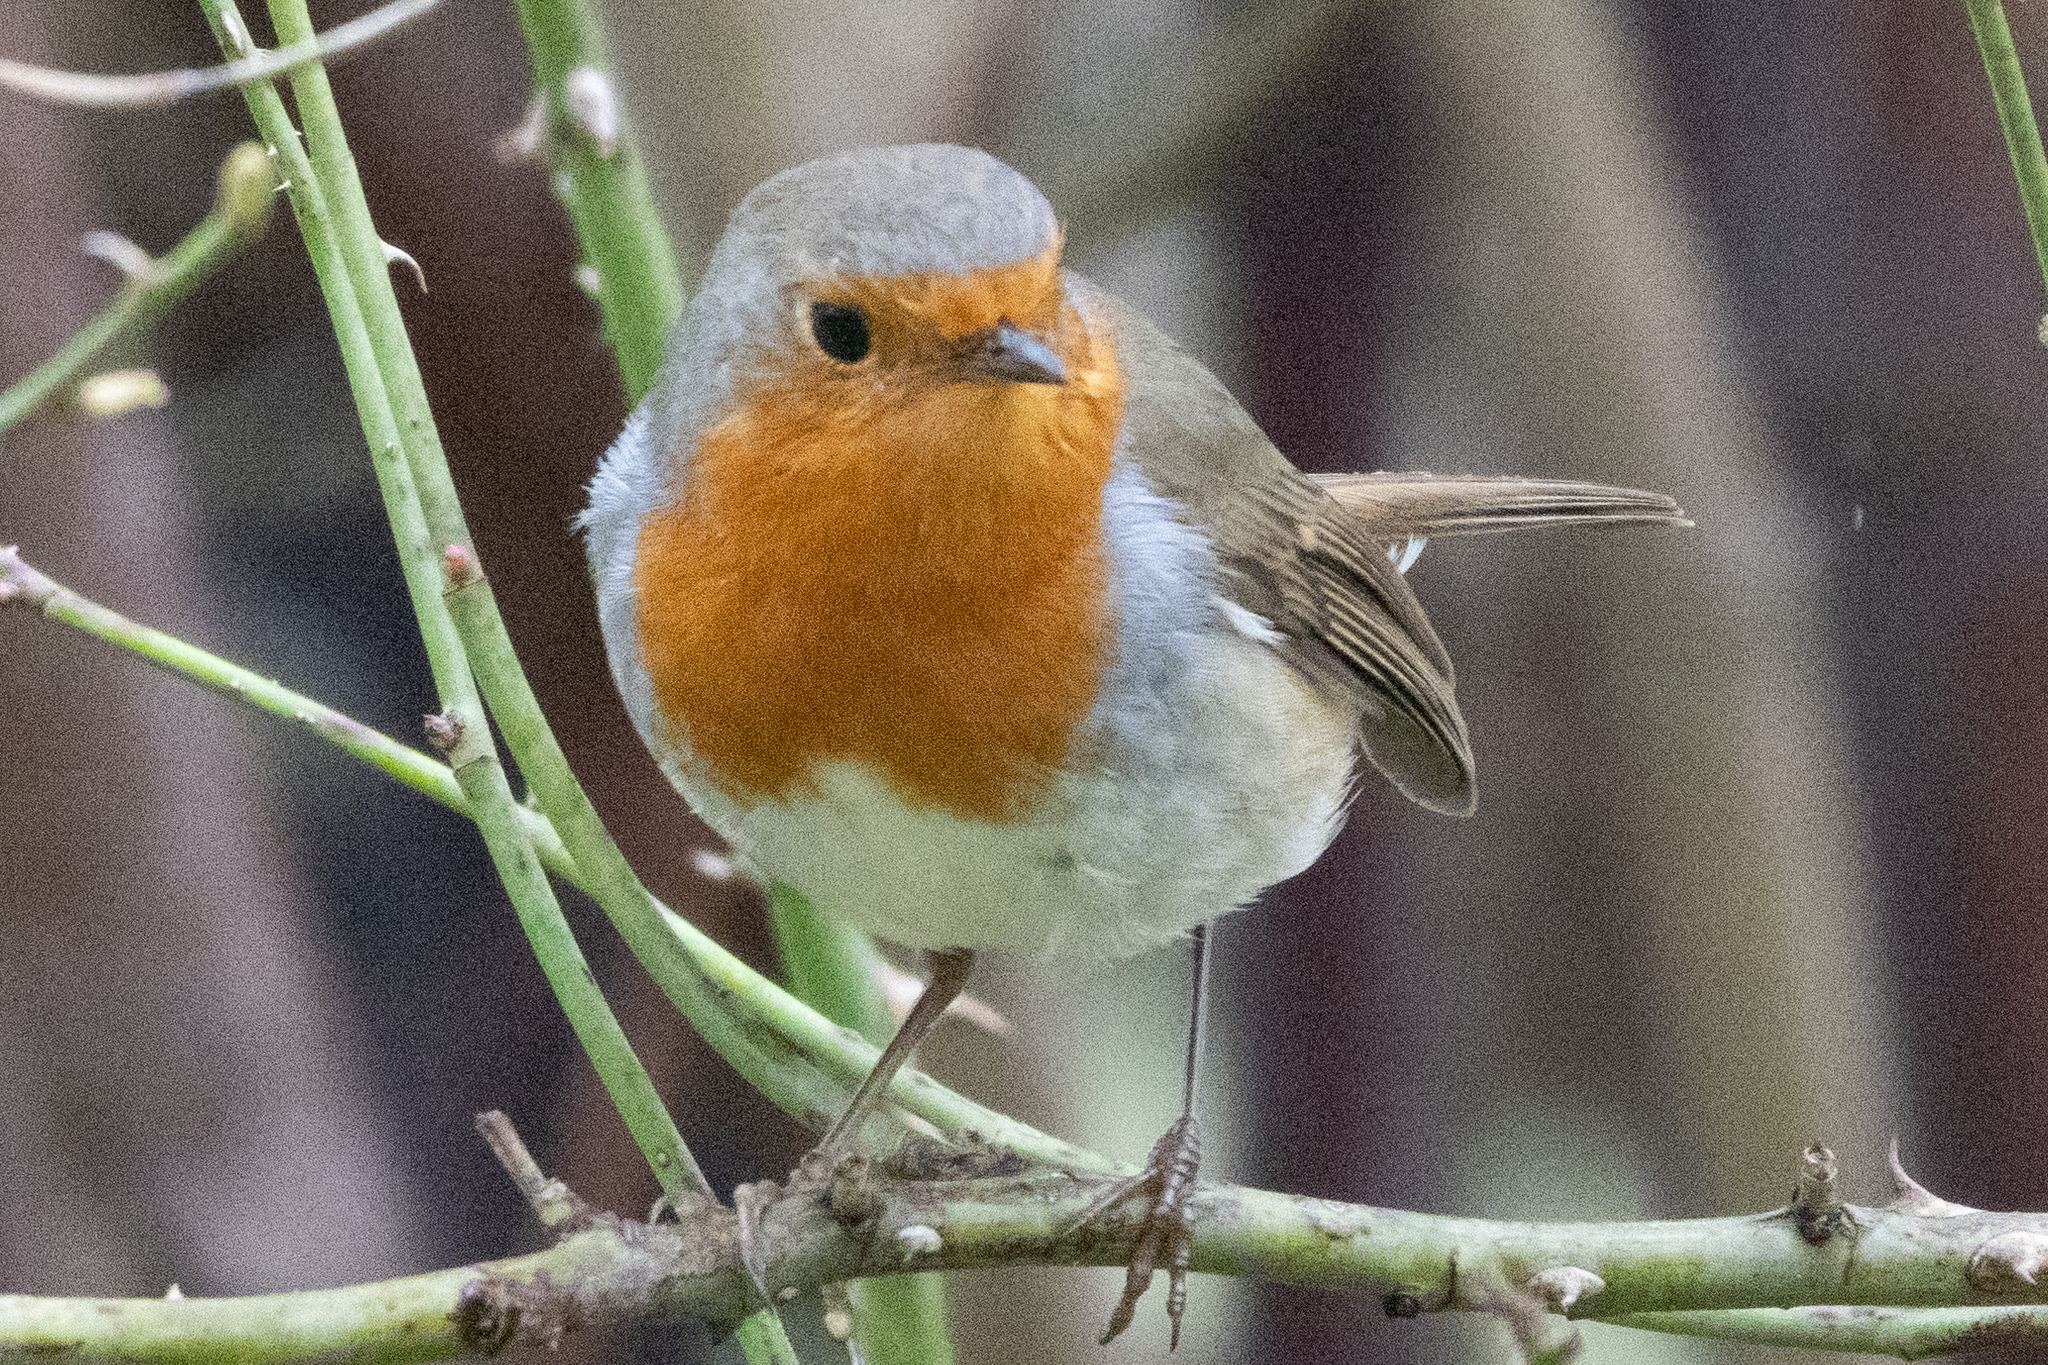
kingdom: Animalia
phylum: Chordata
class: Aves
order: Passeriformes
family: Muscicapidae
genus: Erithacus
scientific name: Erithacus rubecula
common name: European robin
